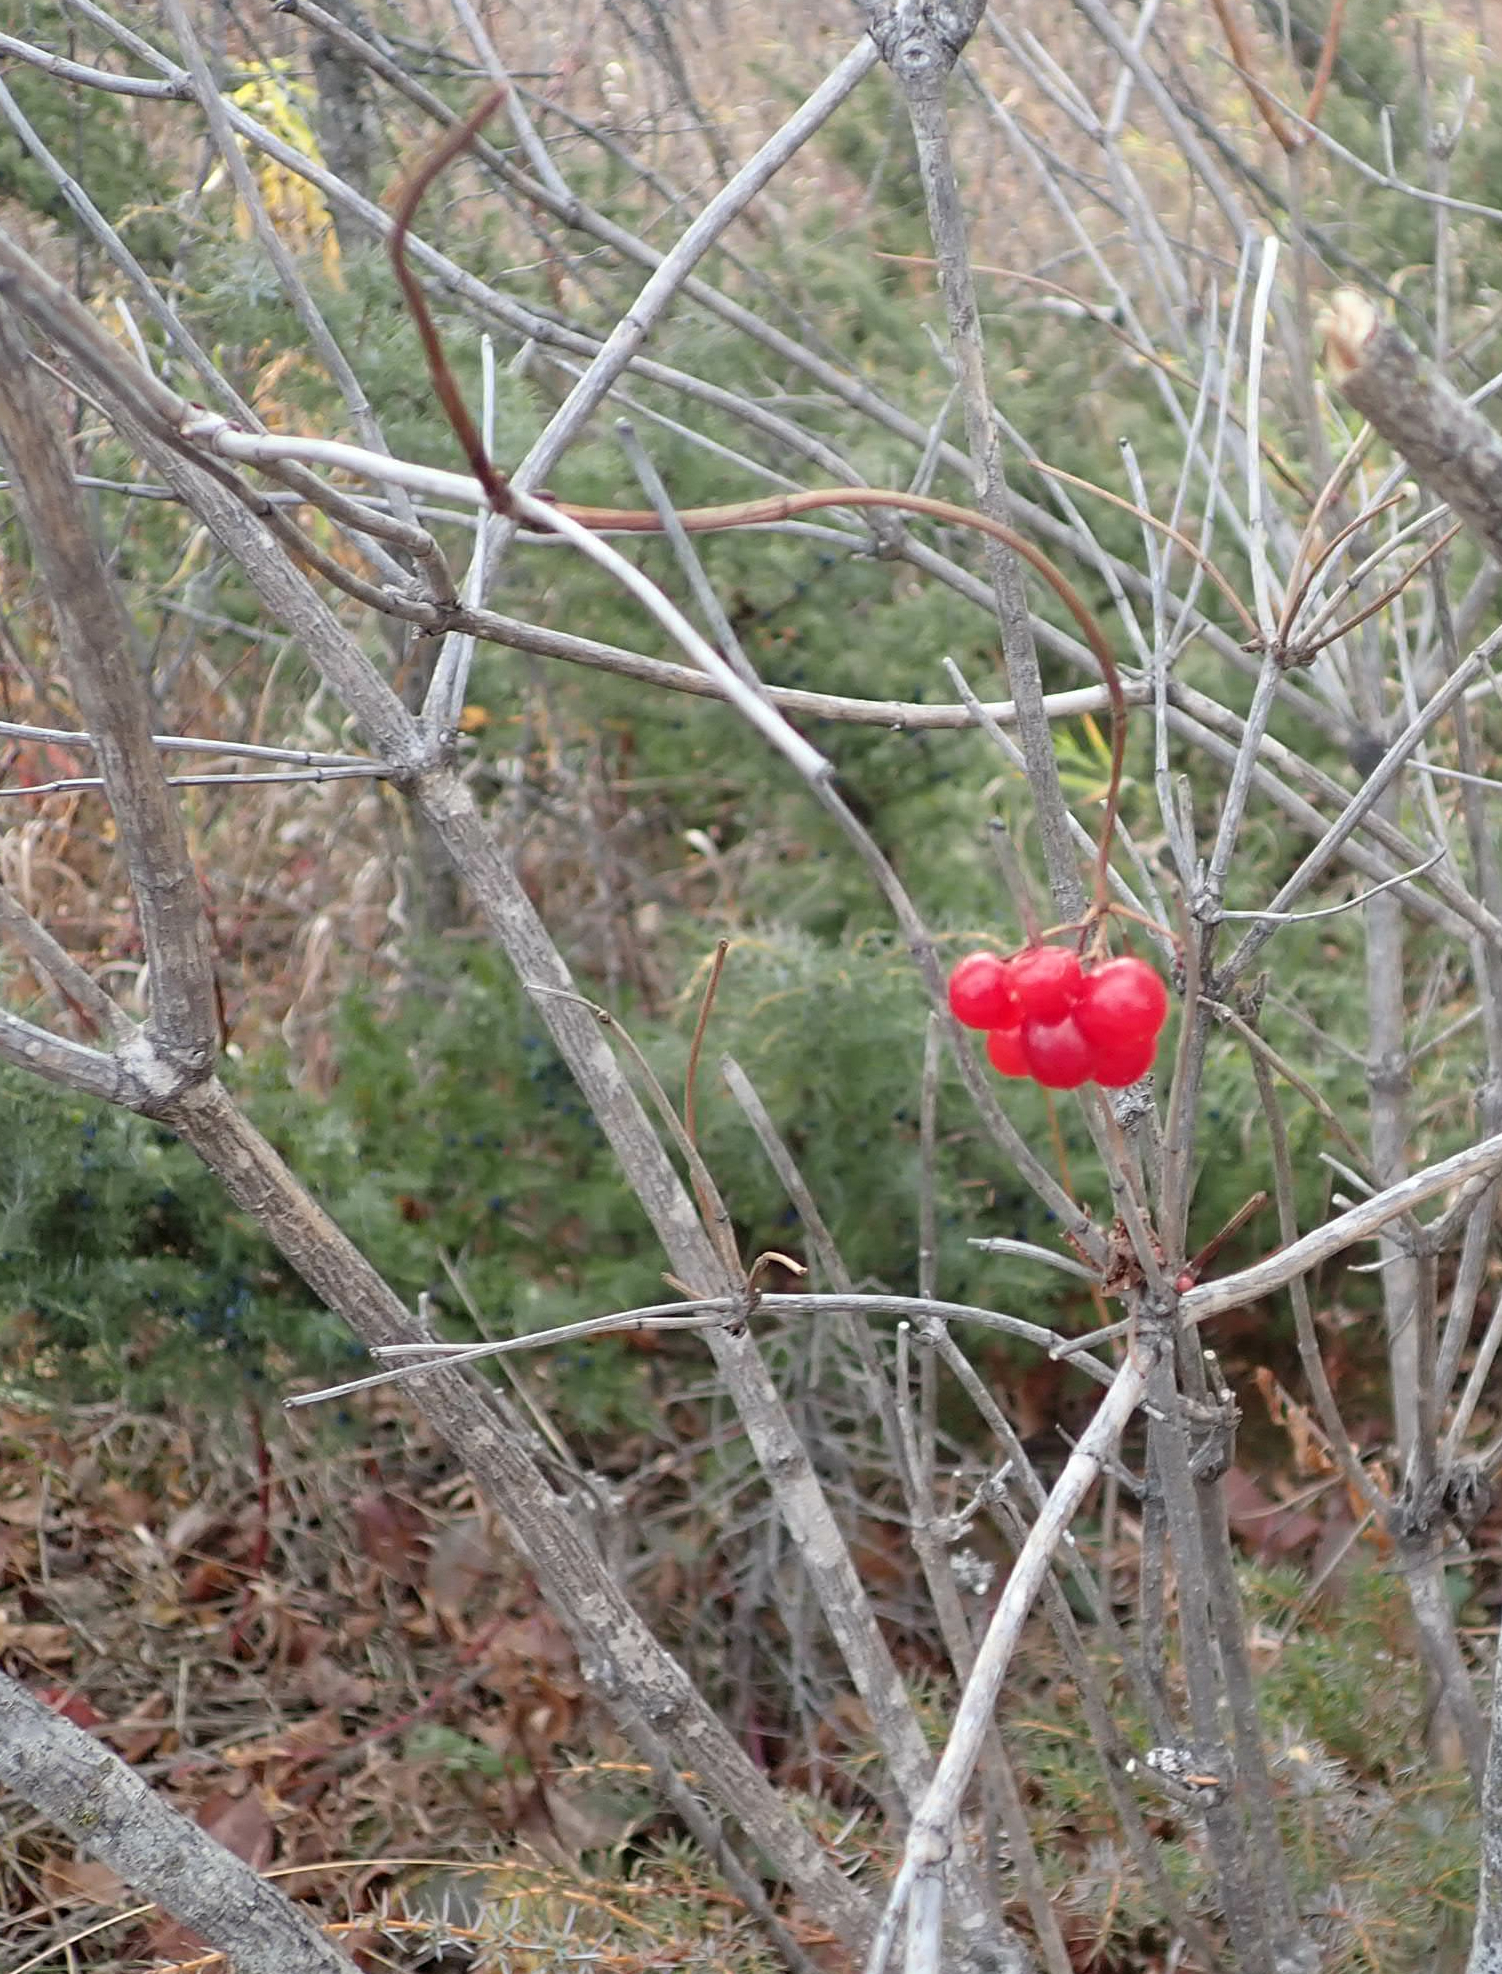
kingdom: Plantae
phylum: Tracheophyta
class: Magnoliopsida
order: Dipsacales
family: Viburnaceae
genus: Viburnum
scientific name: Viburnum trilobum
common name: American cranberrybush
